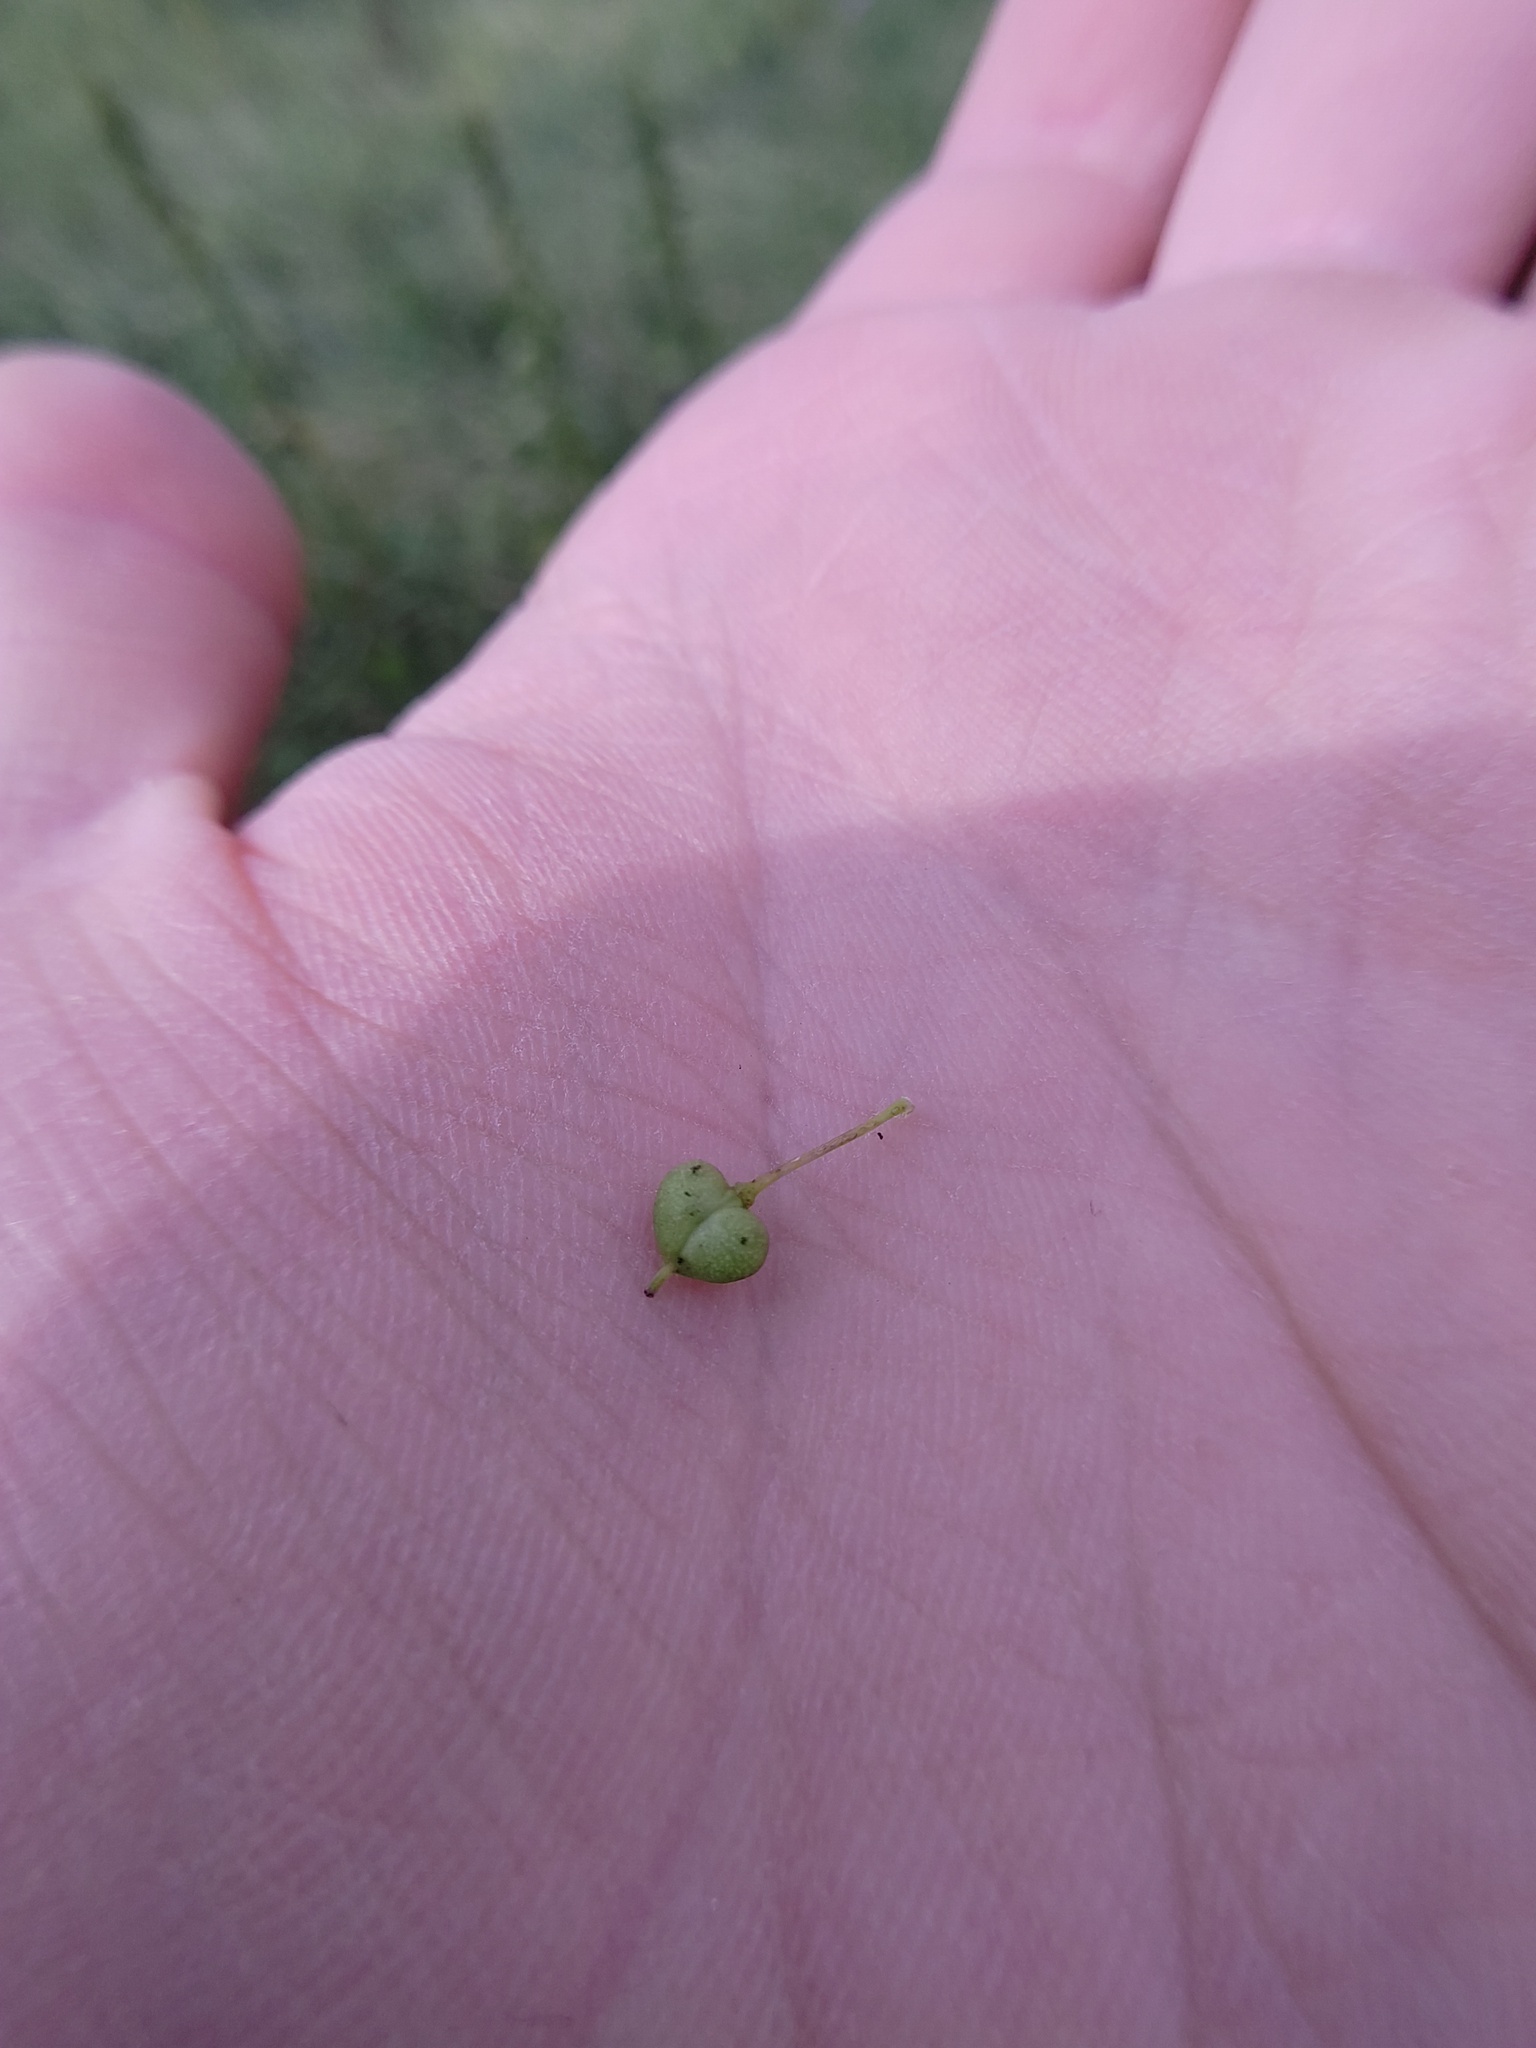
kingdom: Plantae
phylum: Tracheophyta
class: Magnoliopsida
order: Brassicales
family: Brassicaceae
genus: Lepidium
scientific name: Lepidium draba
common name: Hoary cress
